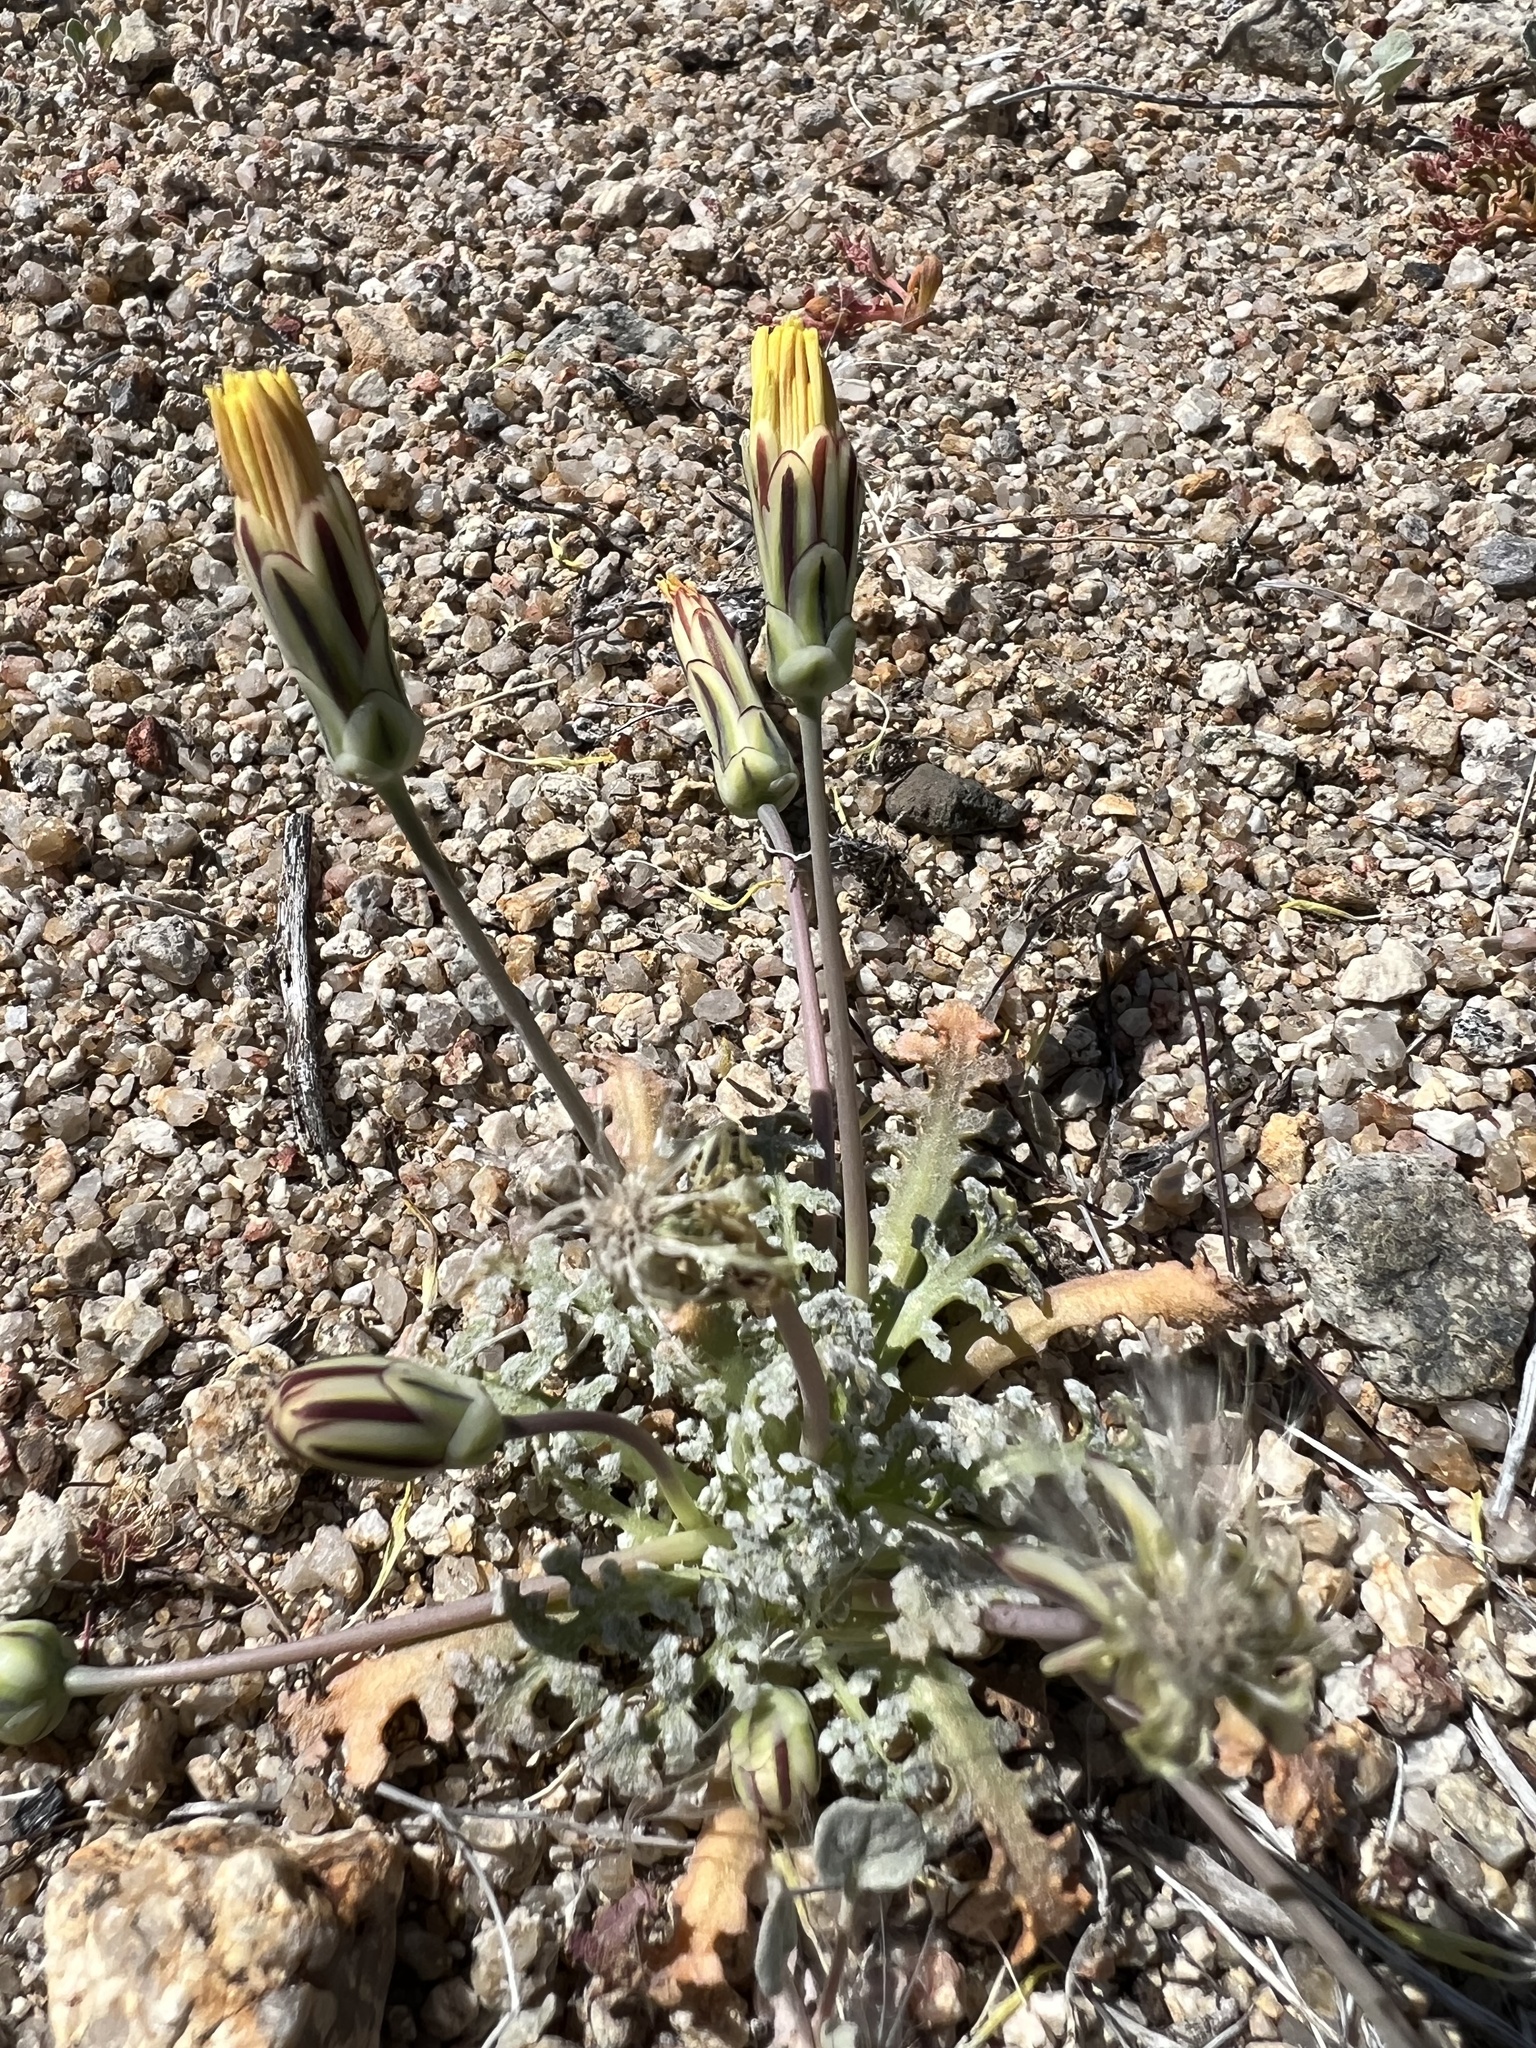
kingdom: Plantae
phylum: Tracheophyta
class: Magnoliopsida
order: Asterales
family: Asteraceae
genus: Anisocoma
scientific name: Anisocoma acaulis
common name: Scalebud
